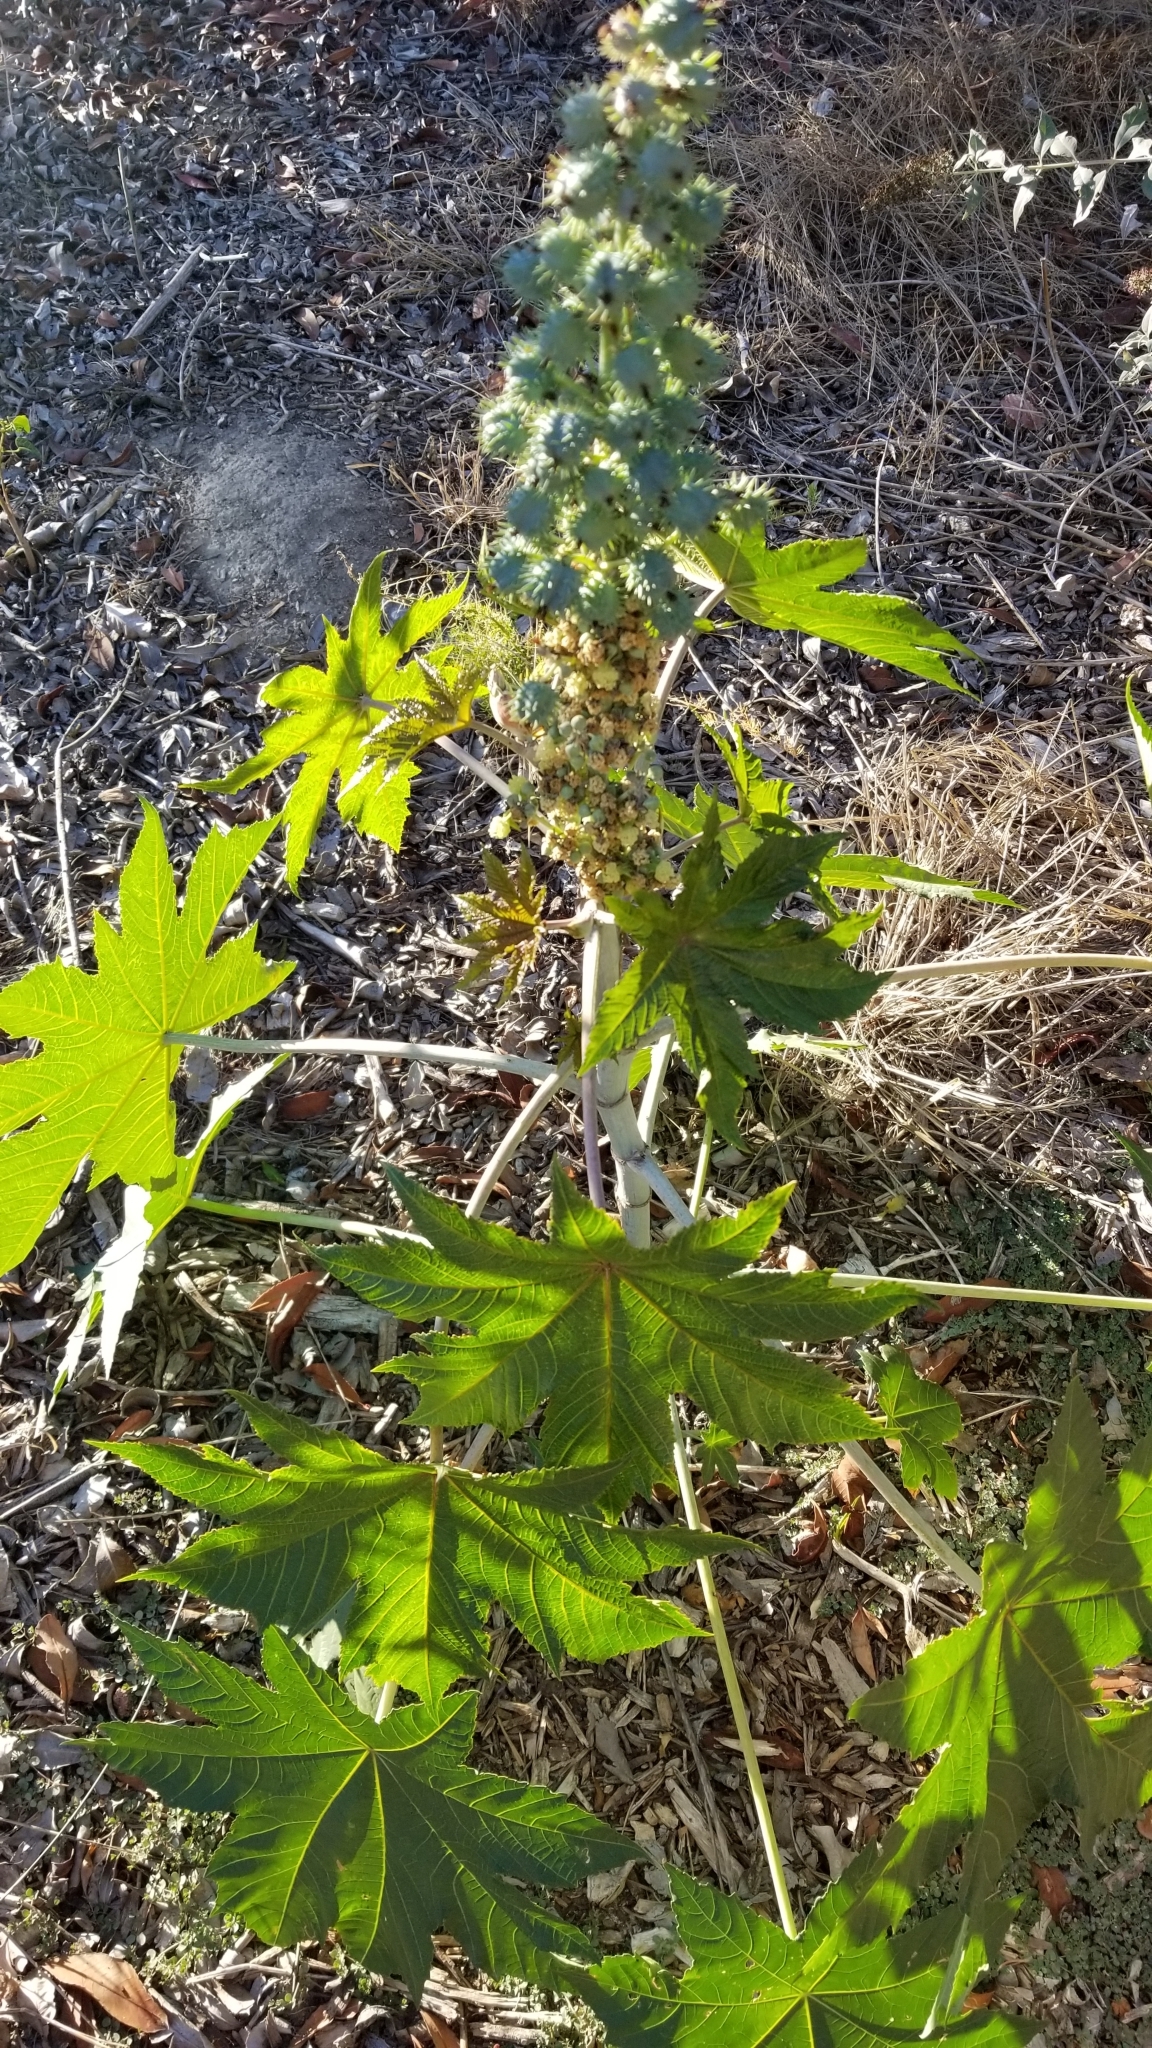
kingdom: Plantae
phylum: Tracheophyta
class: Magnoliopsida
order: Malpighiales
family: Euphorbiaceae
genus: Ricinus
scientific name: Ricinus communis
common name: Castor-oil-plant
